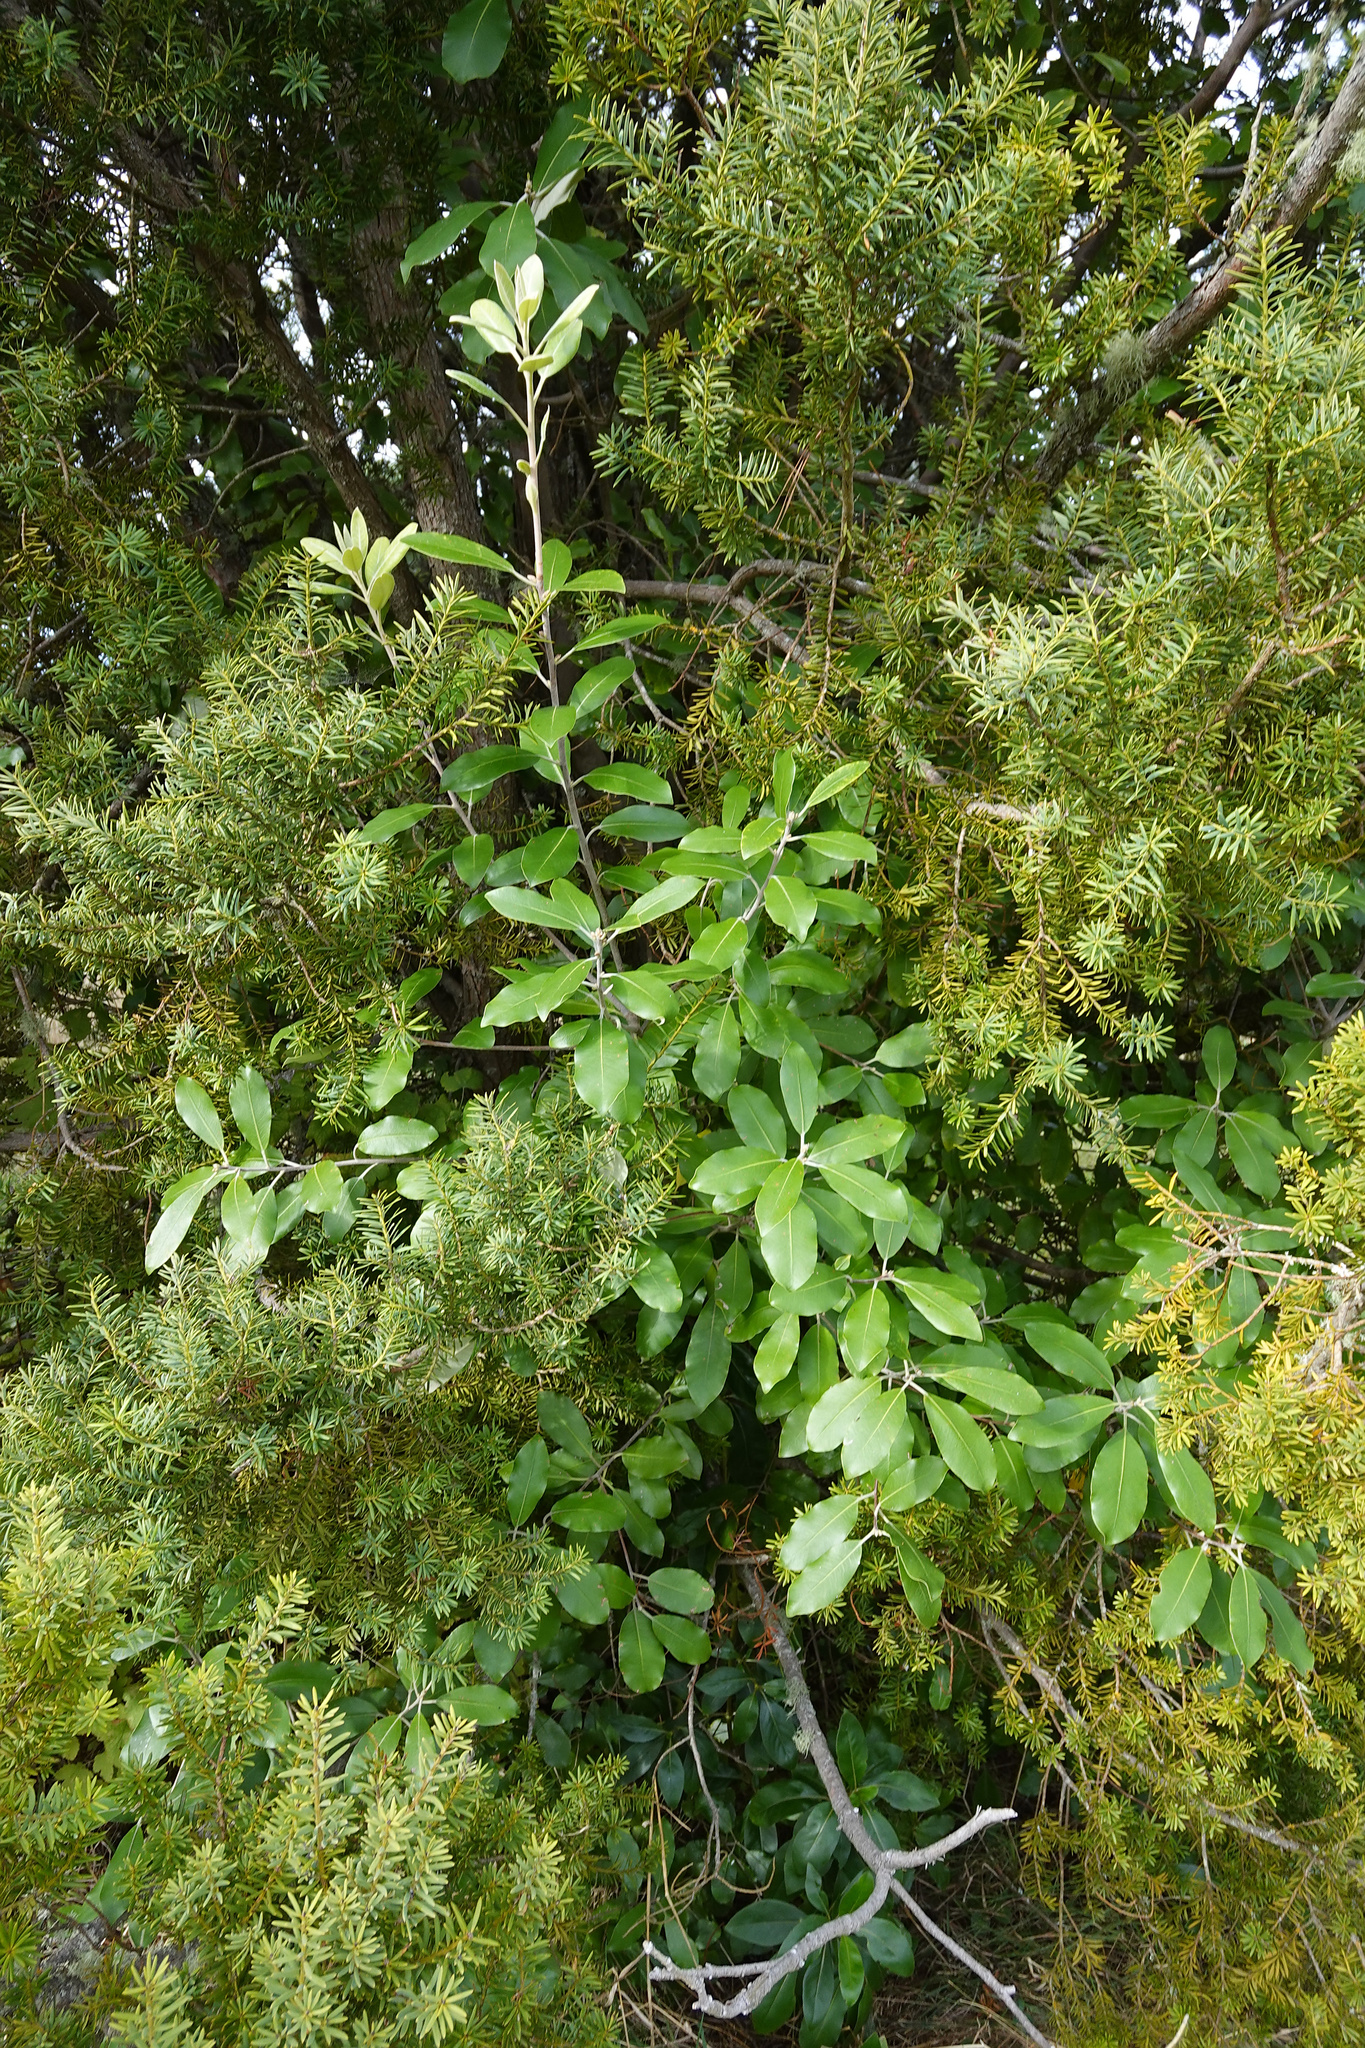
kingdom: Plantae
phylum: Tracheophyta
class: Magnoliopsida
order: Apiales
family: Pittosporaceae
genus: Pittosporum
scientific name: Pittosporum ralphii
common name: Ralph's desertwillow
